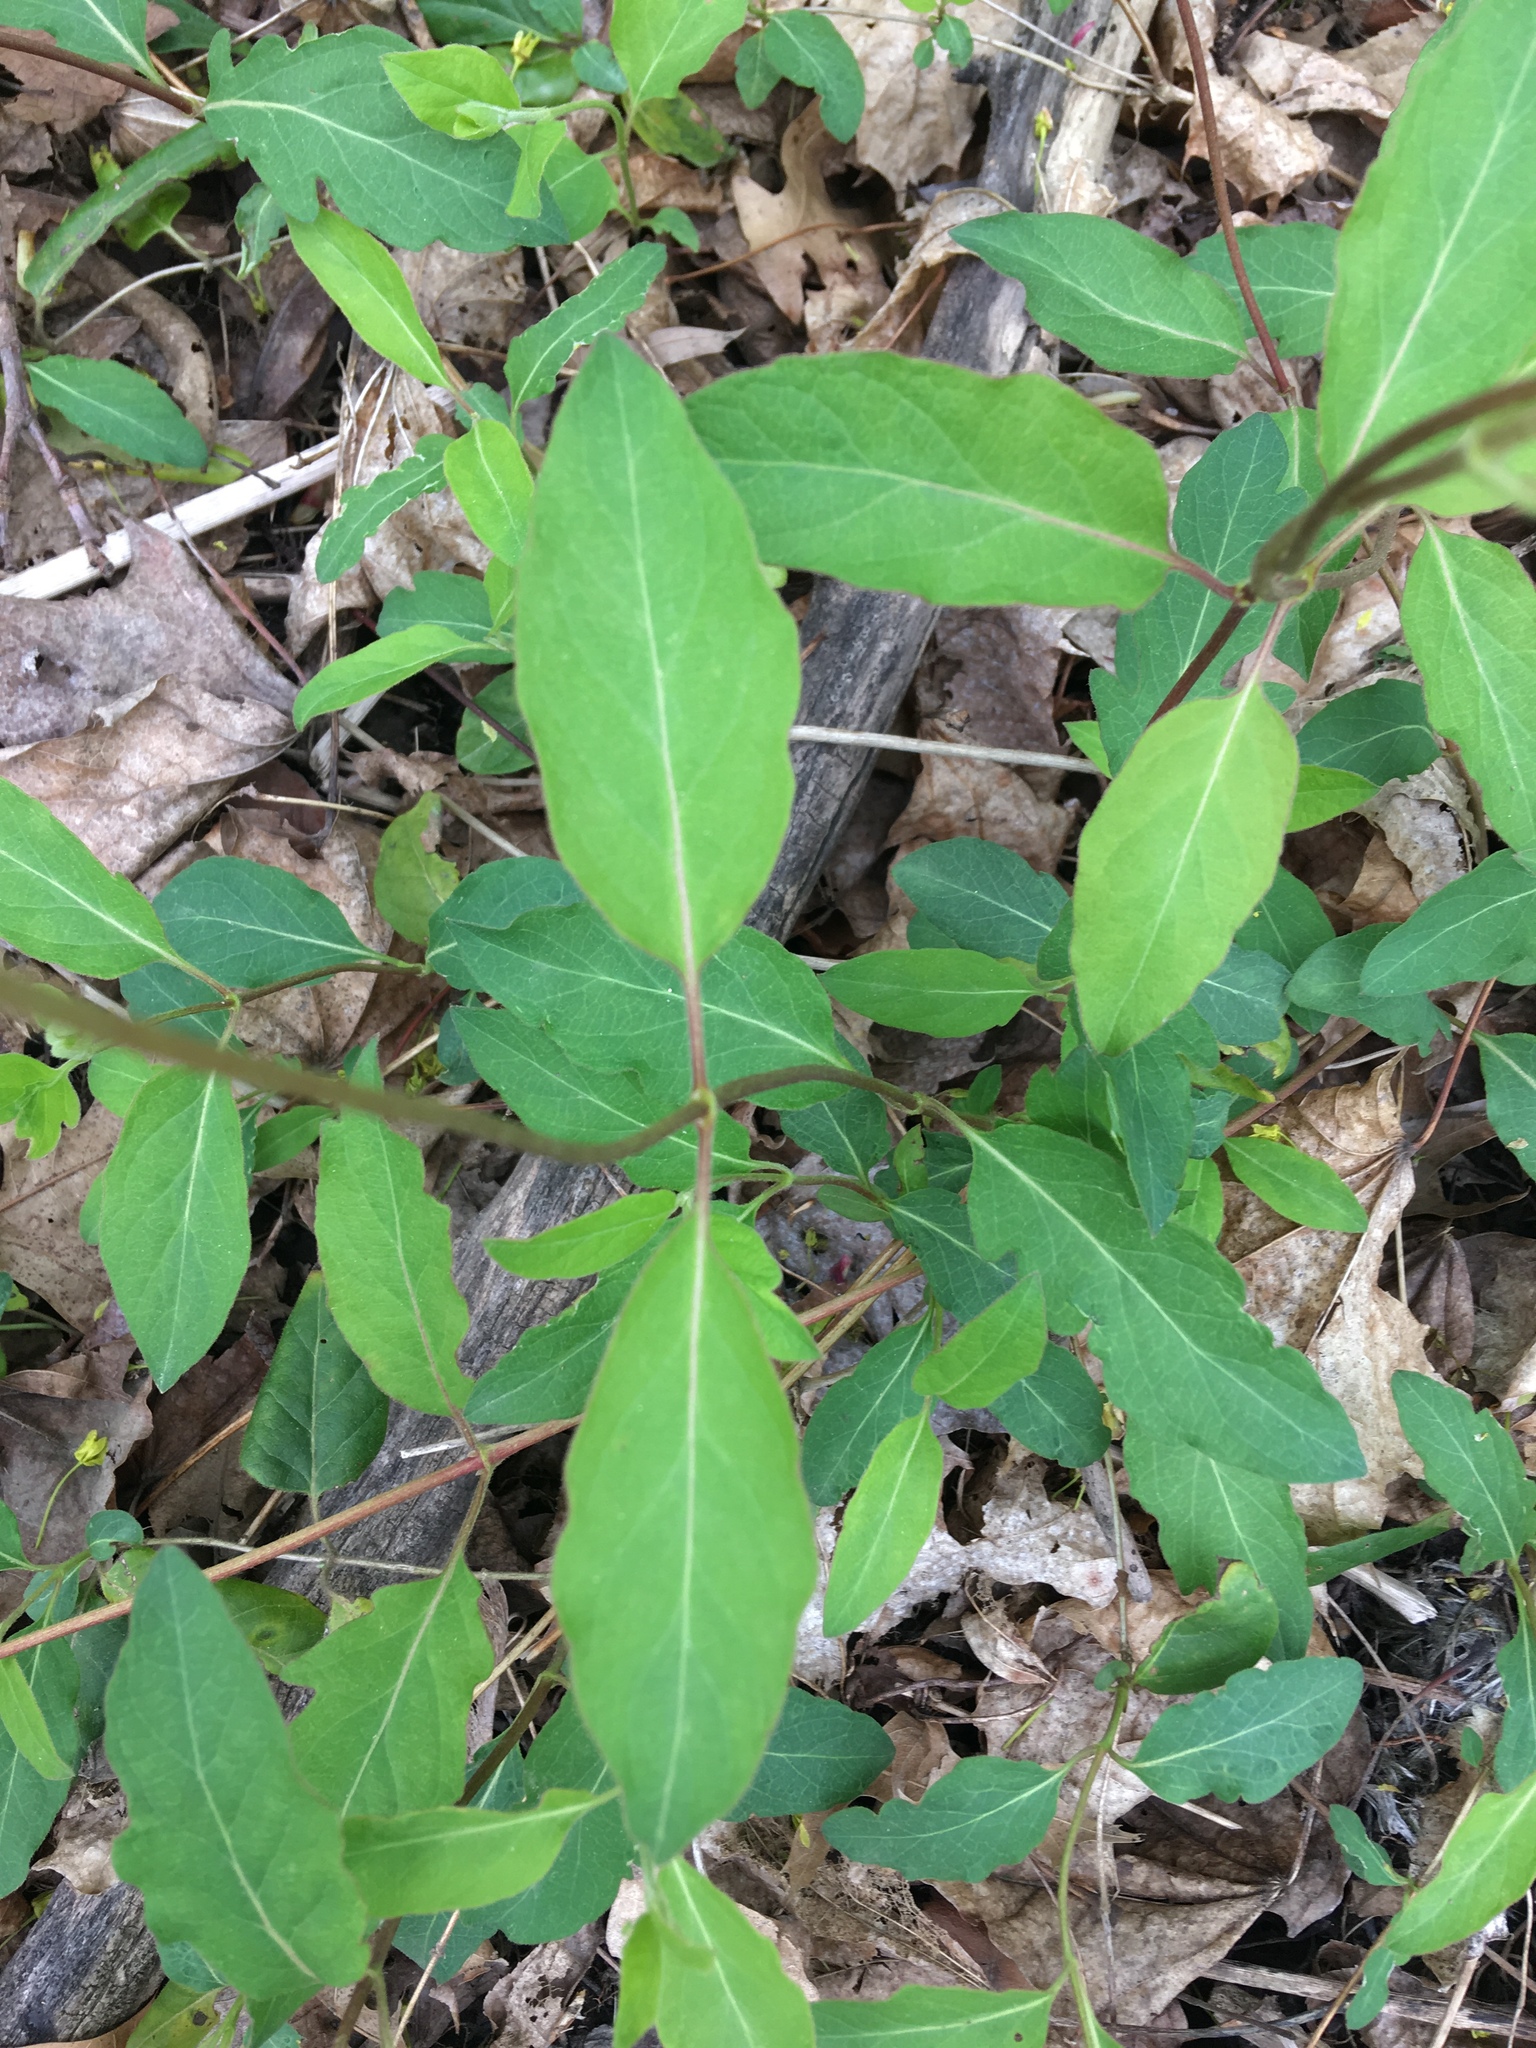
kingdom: Plantae
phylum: Tracheophyta
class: Magnoliopsida
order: Dipsacales
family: Caprifoliaceae
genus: Lonicera
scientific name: Lonicera japonica
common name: Japanese honeysuckle
